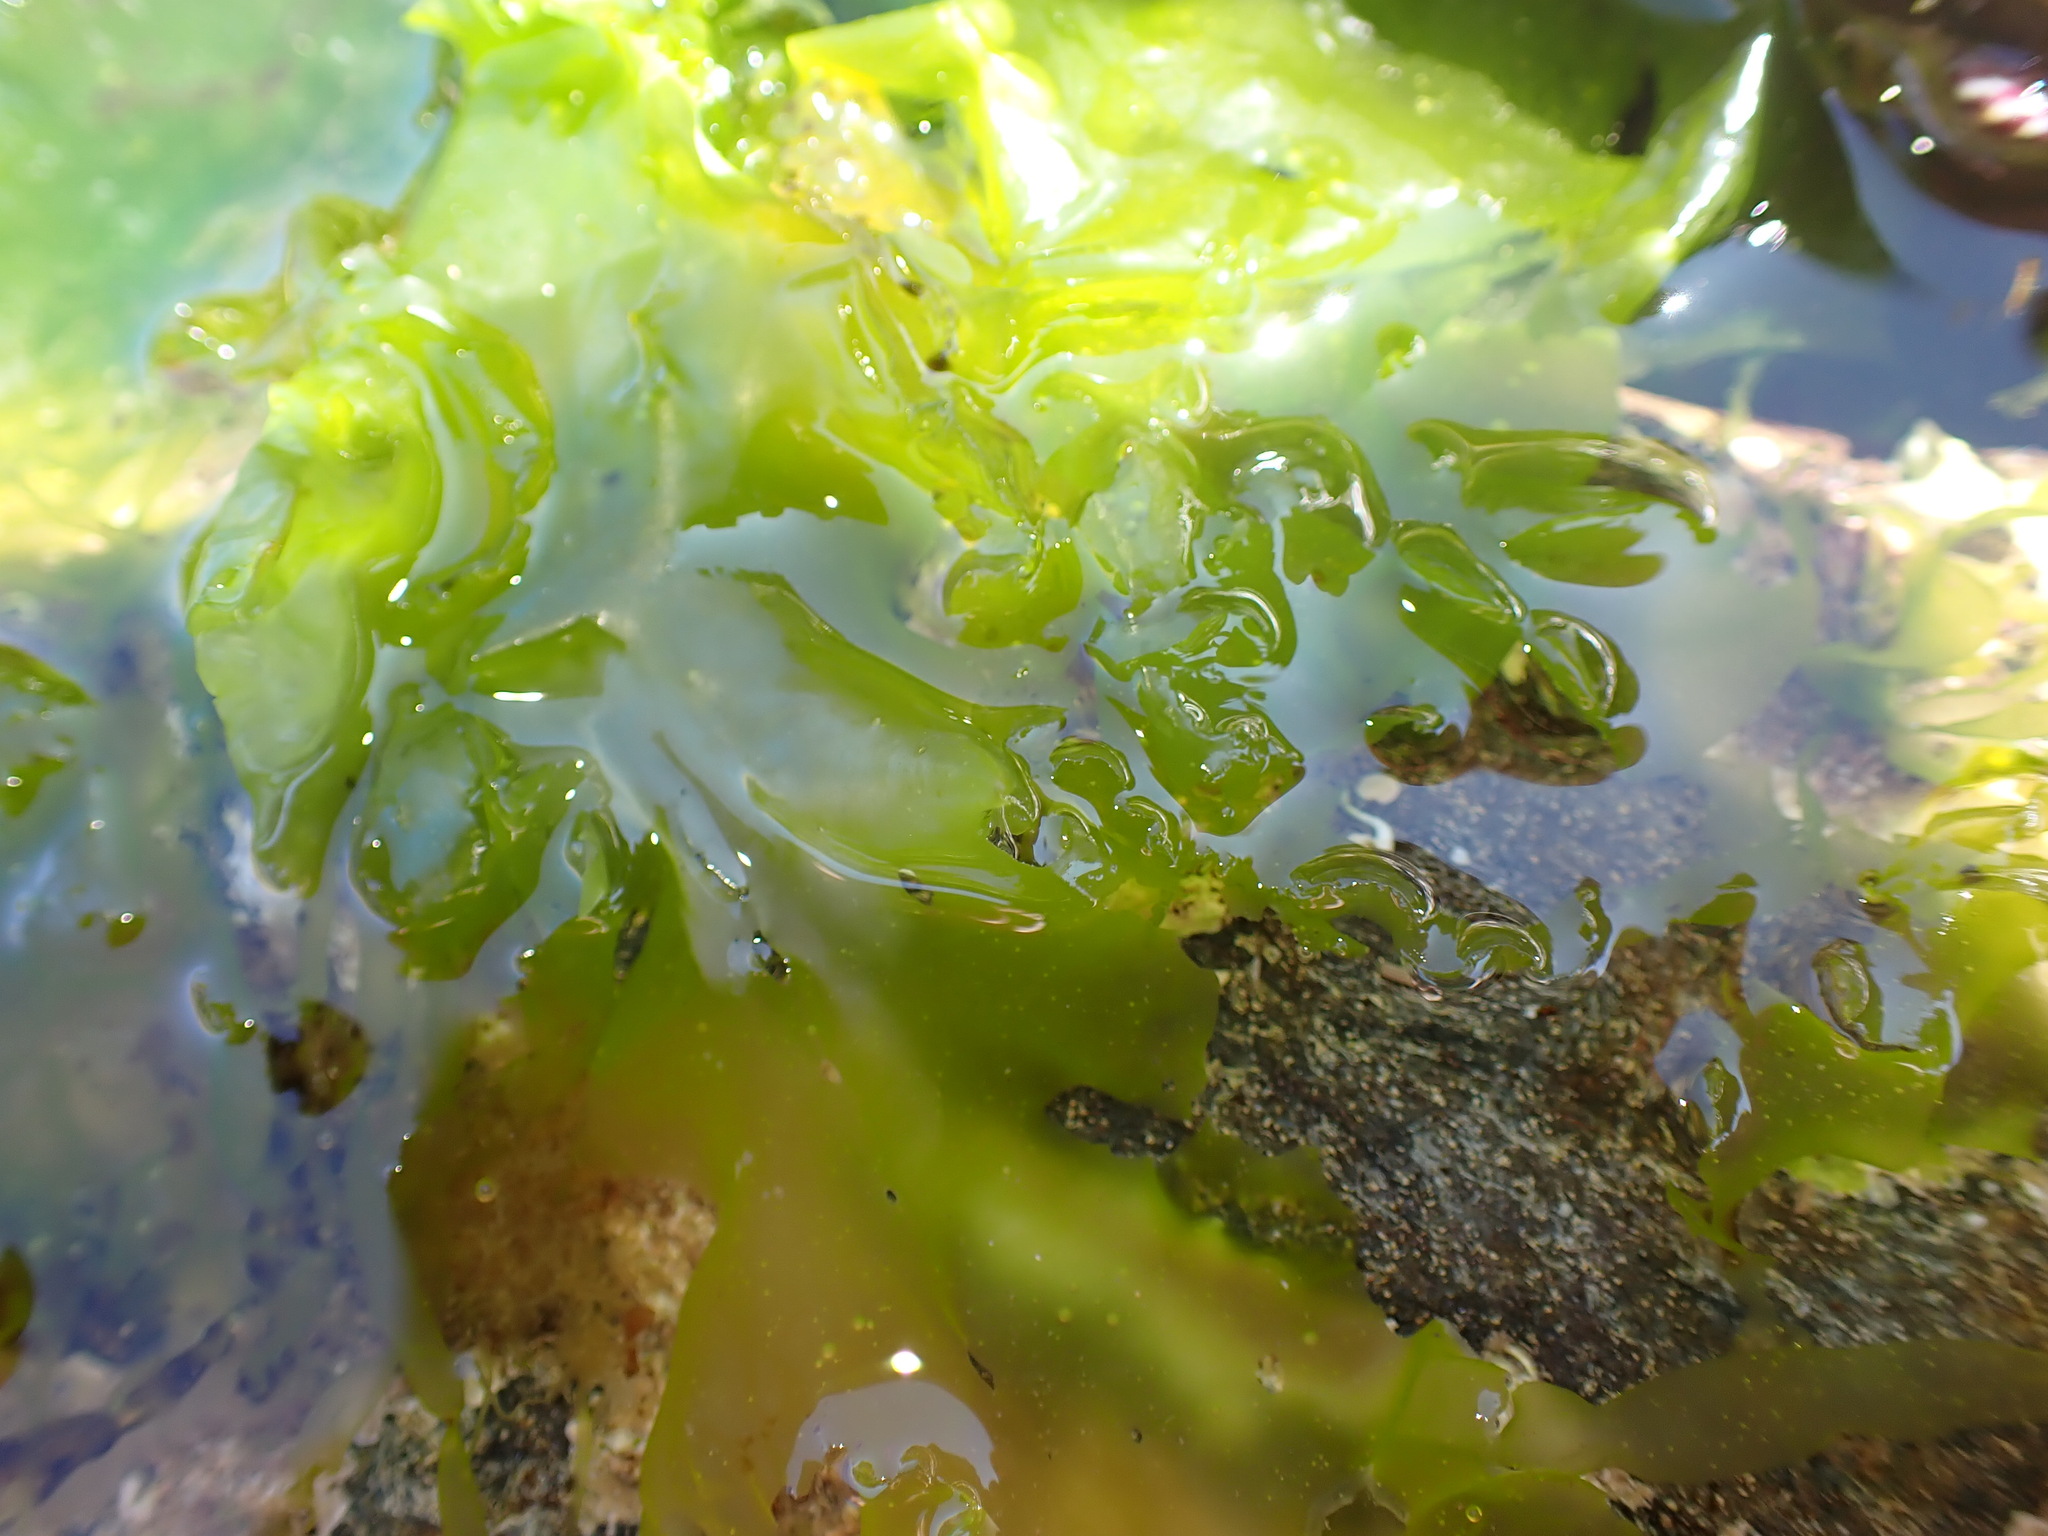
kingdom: Plantae
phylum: Chlorophyta
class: Ulvophyceae
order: Ulvales
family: Ulvaceae
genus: Ulva
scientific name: Ulva lactuca
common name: Sea lettuce
